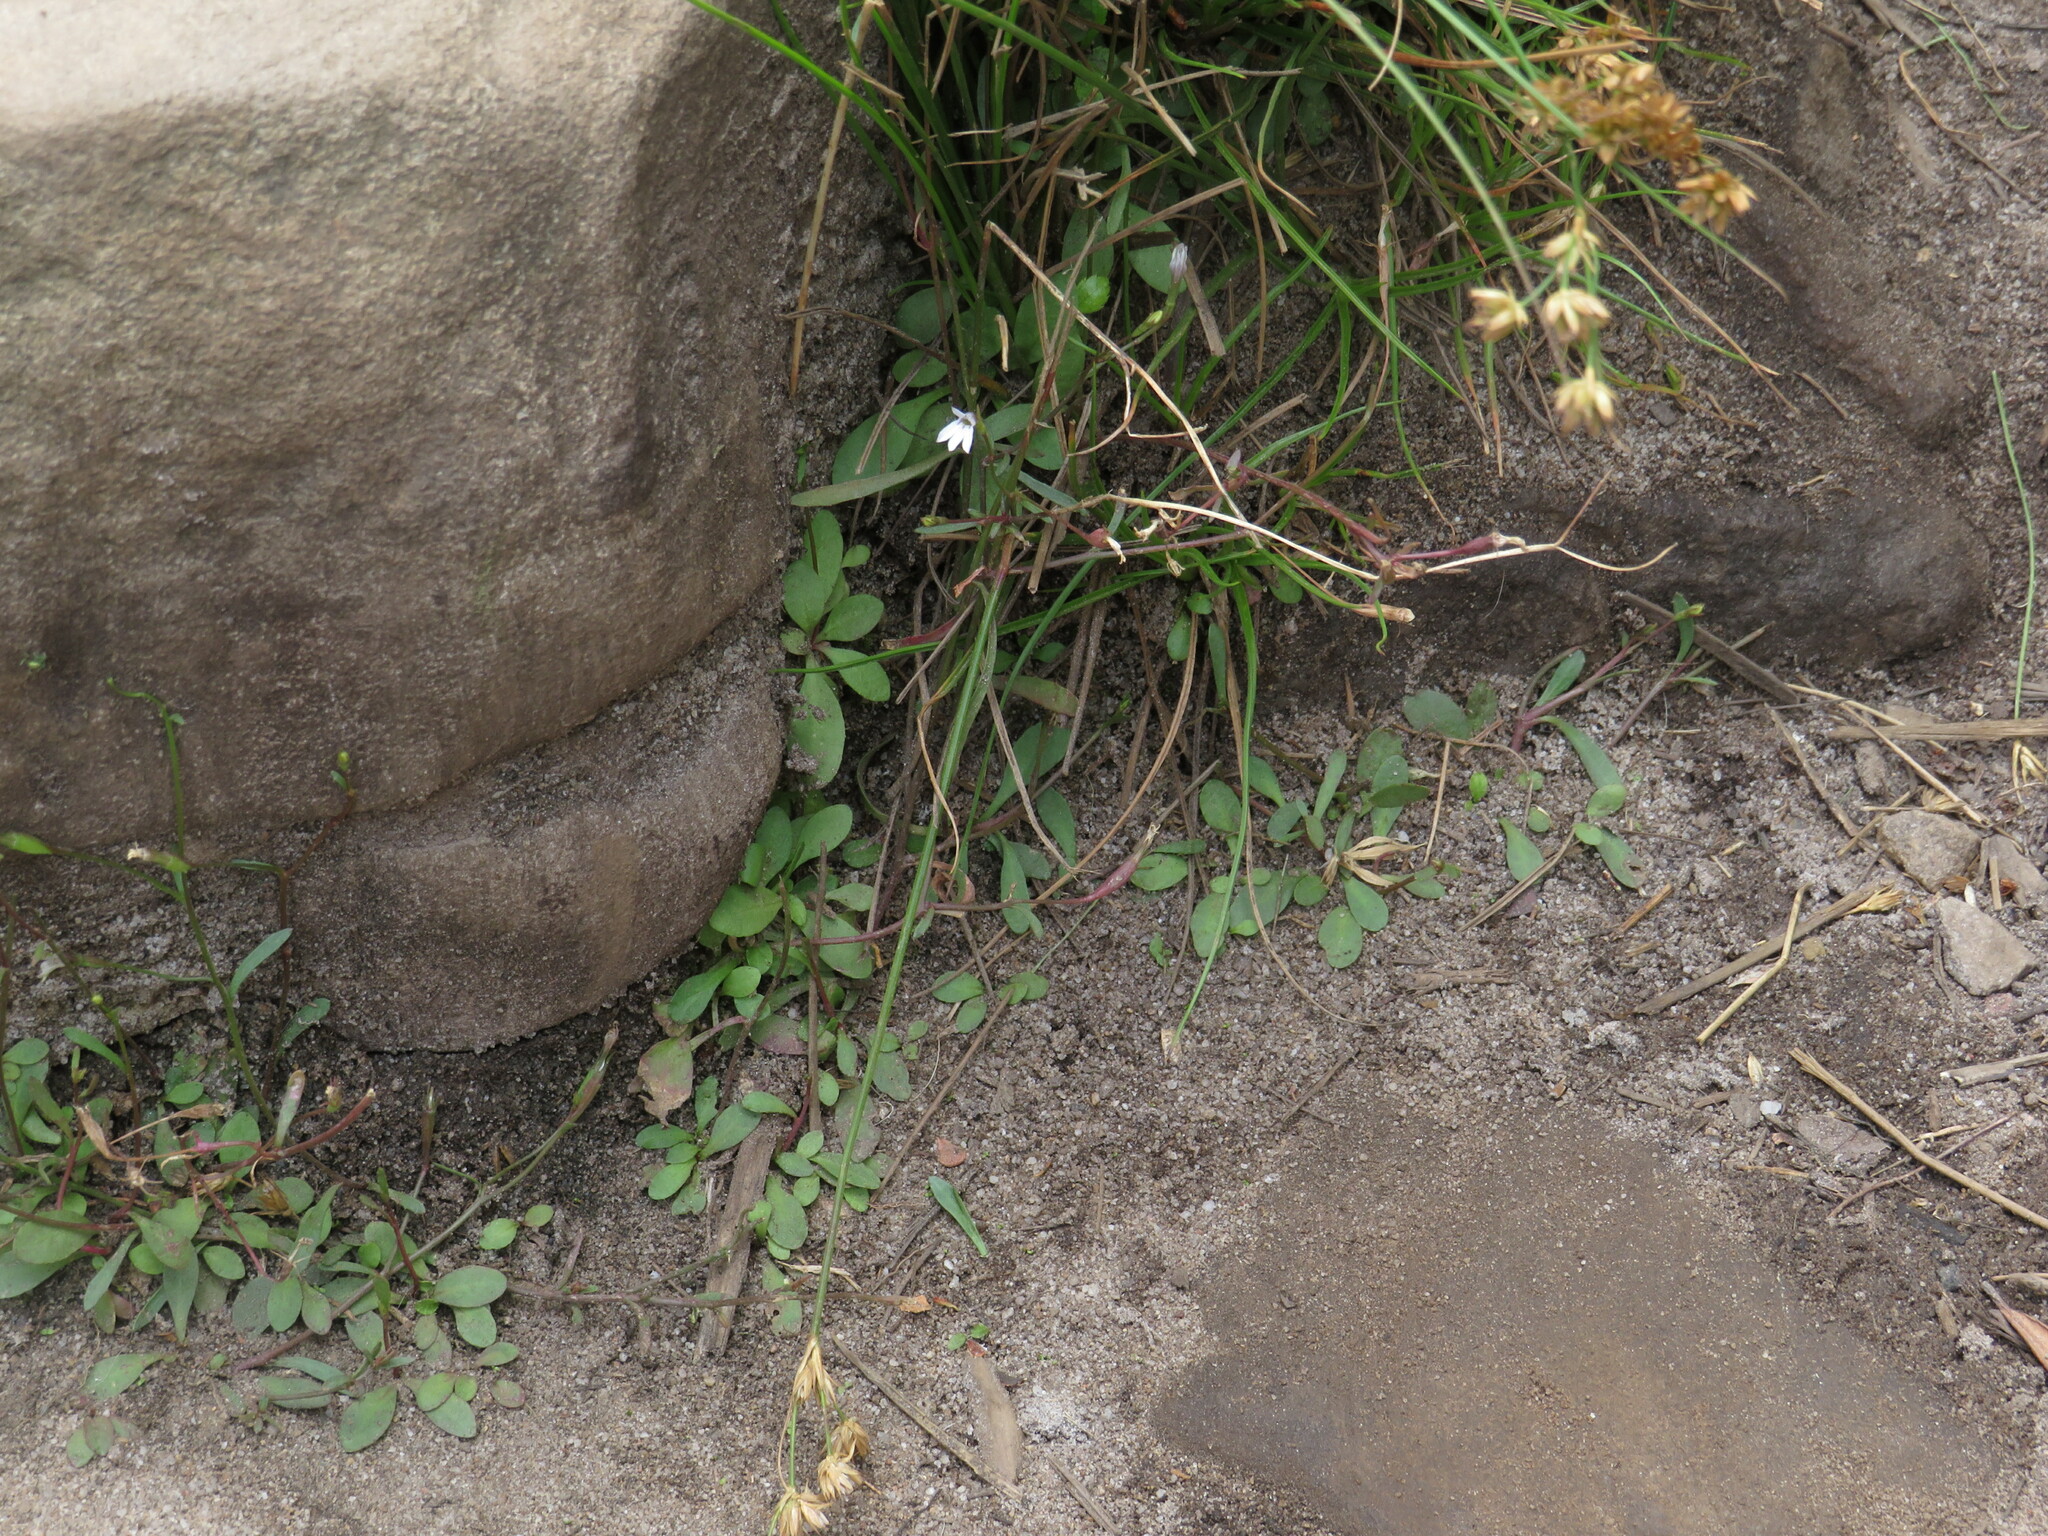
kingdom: Plantae
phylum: Tracheophyta
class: Magnoliopsida
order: Asterales
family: Campanulaceae
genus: Wimmerella
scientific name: Wimmerella arabidea
